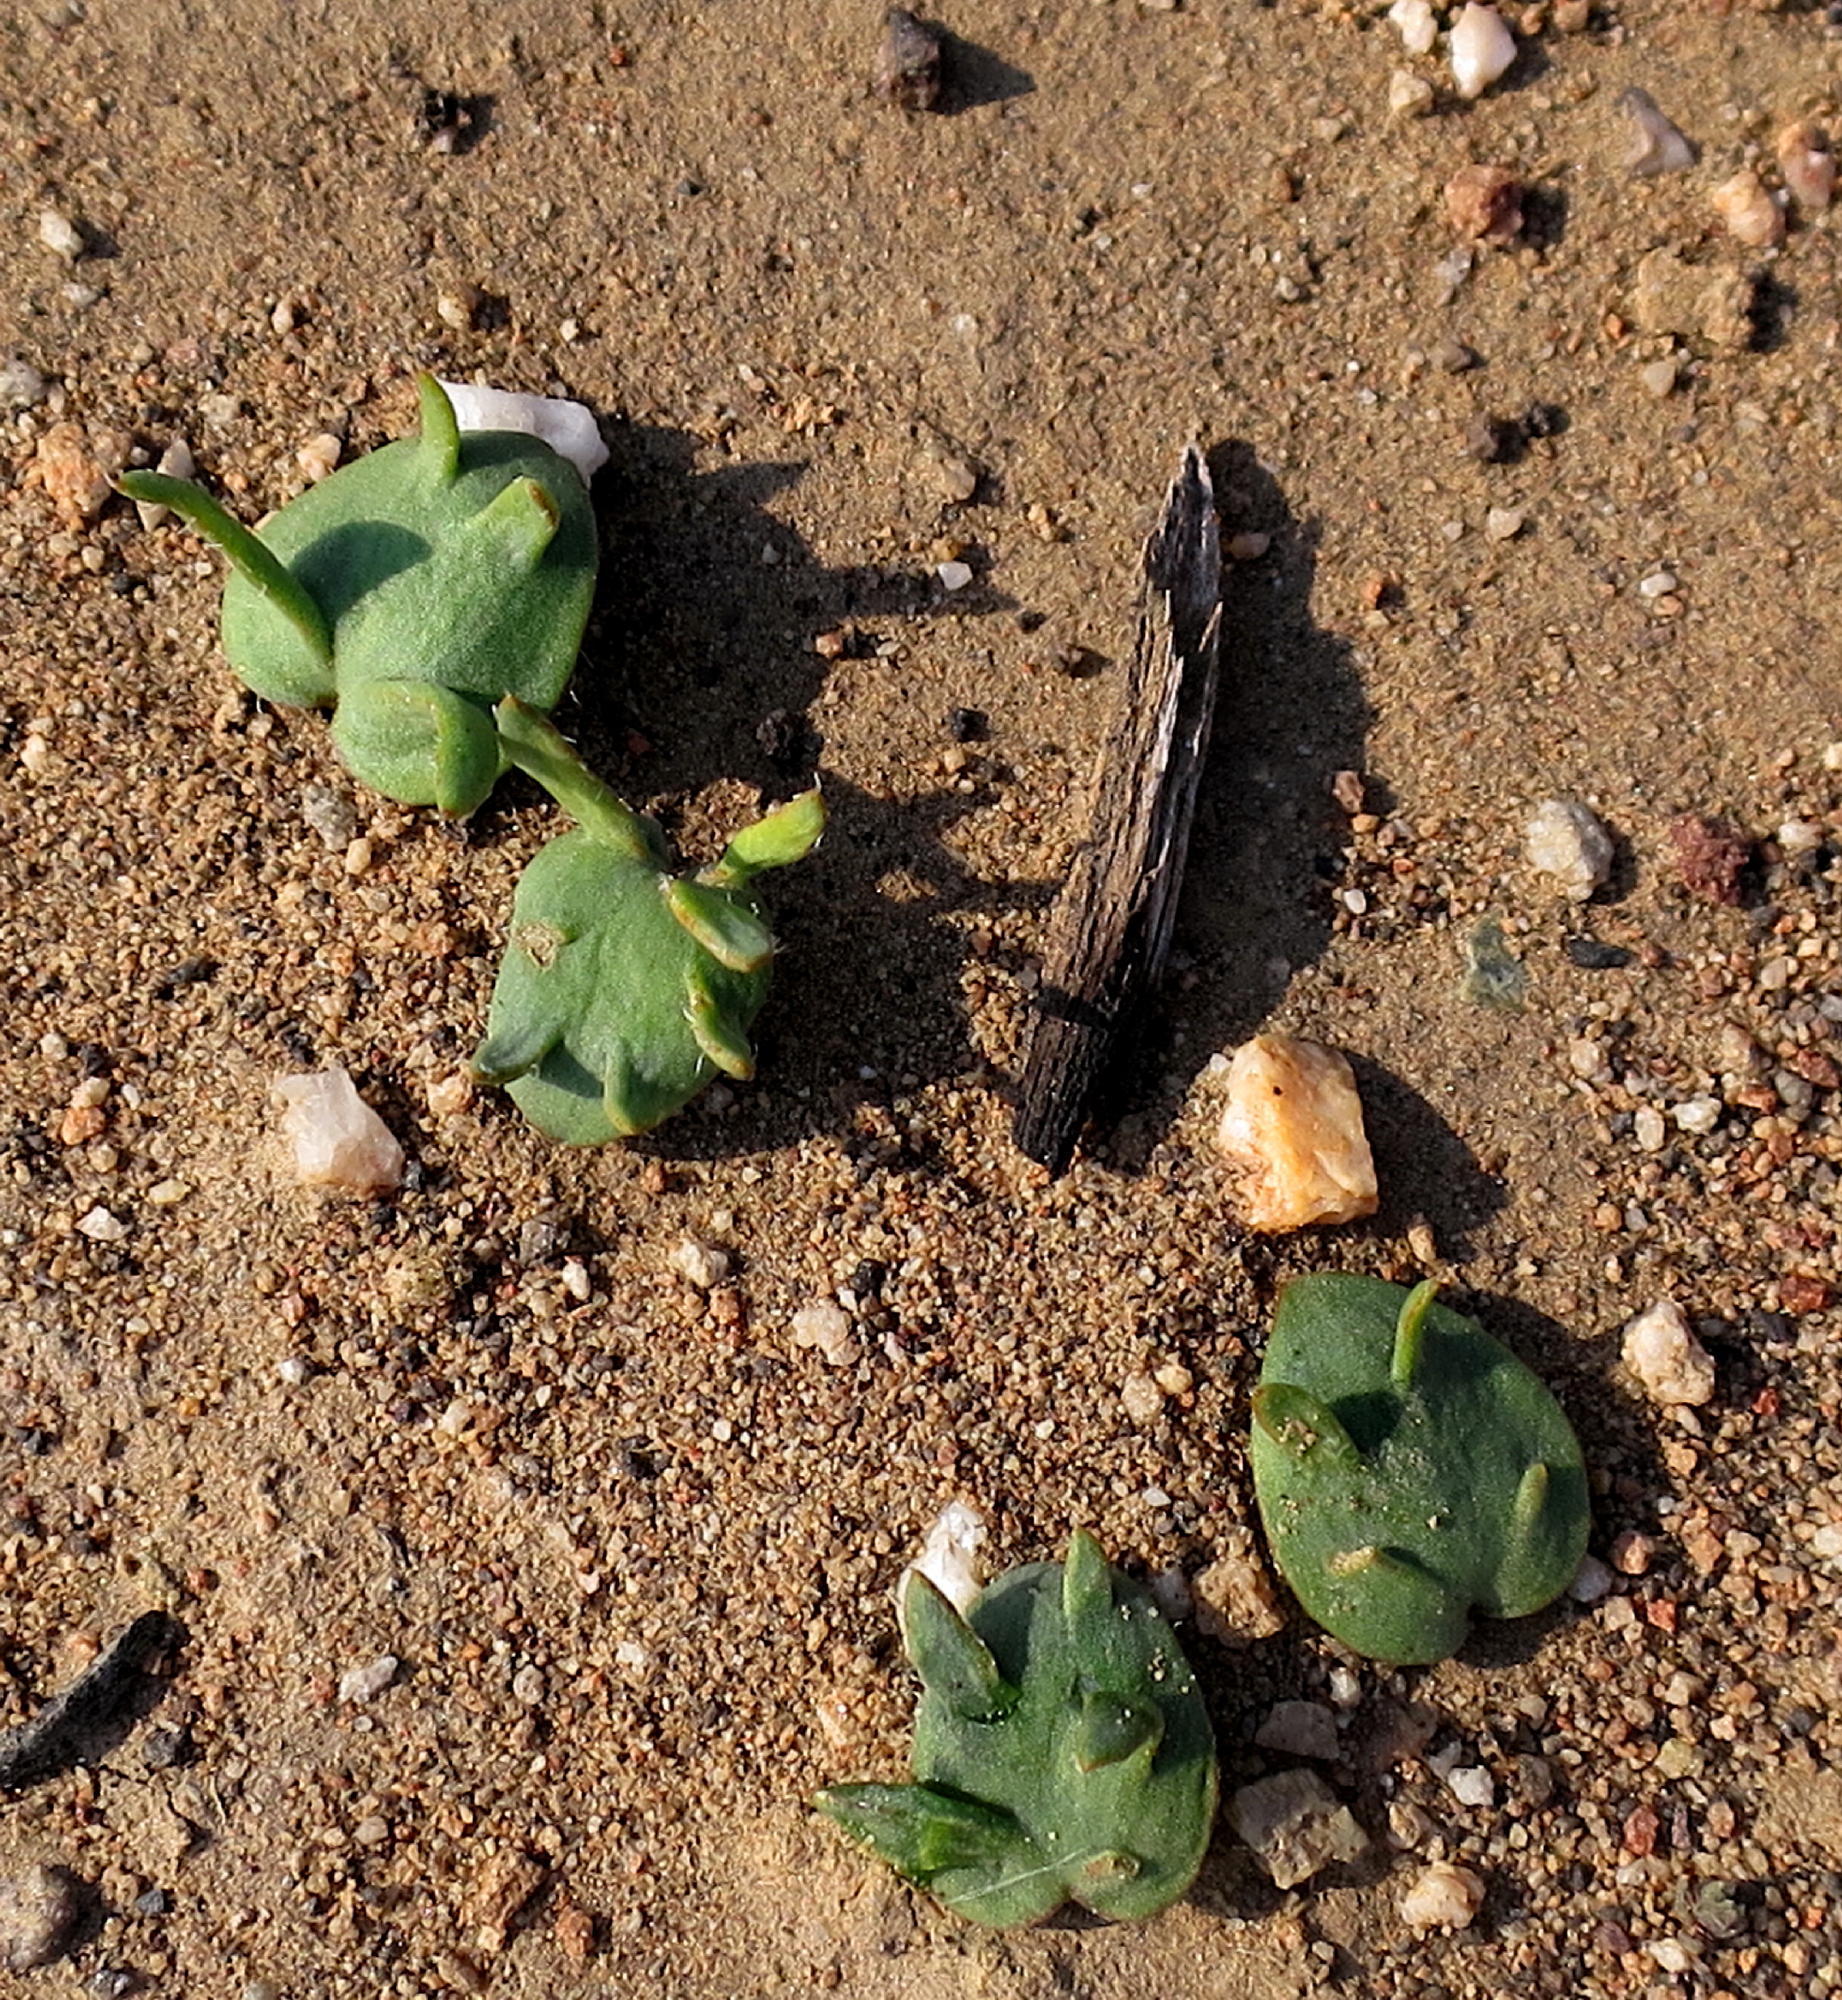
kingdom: Plantae
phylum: Tracheophyta
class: Liliopsida
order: Asparagales
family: Asparagaceae
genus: Eriospermum
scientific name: Eriospermum alcicorne
